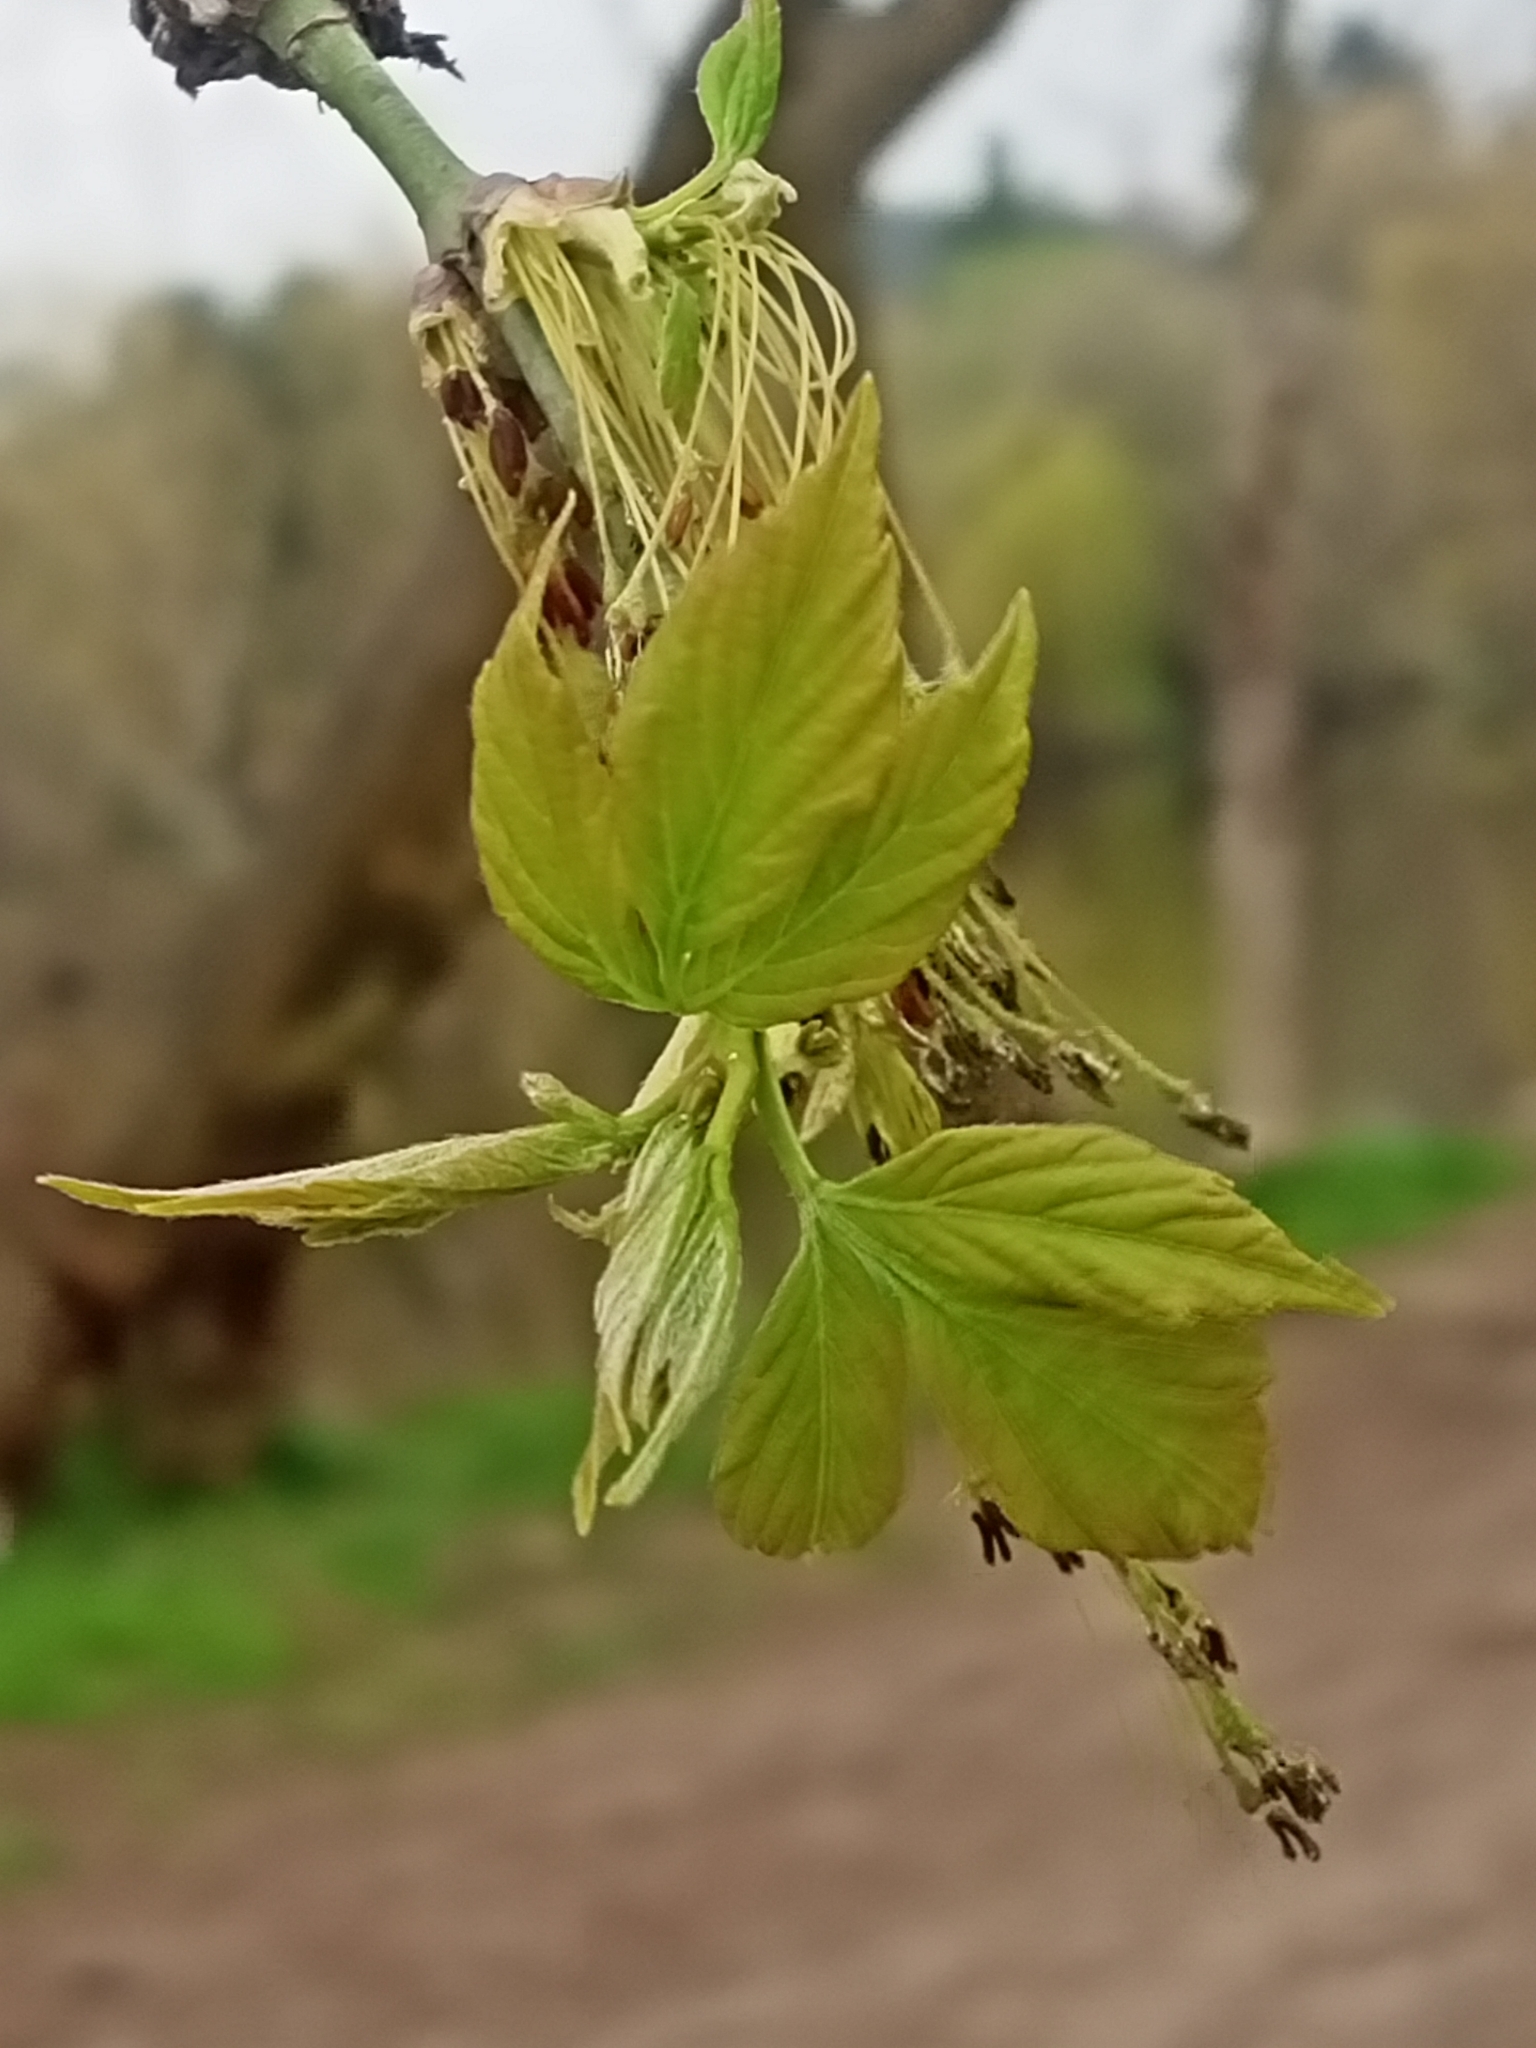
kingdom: Plantae
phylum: Tracheophyta
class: Magnoliopsida
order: Sapindales
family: Sapindaceae
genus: Acer
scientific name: Acer negundo
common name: Ashleaf maple
